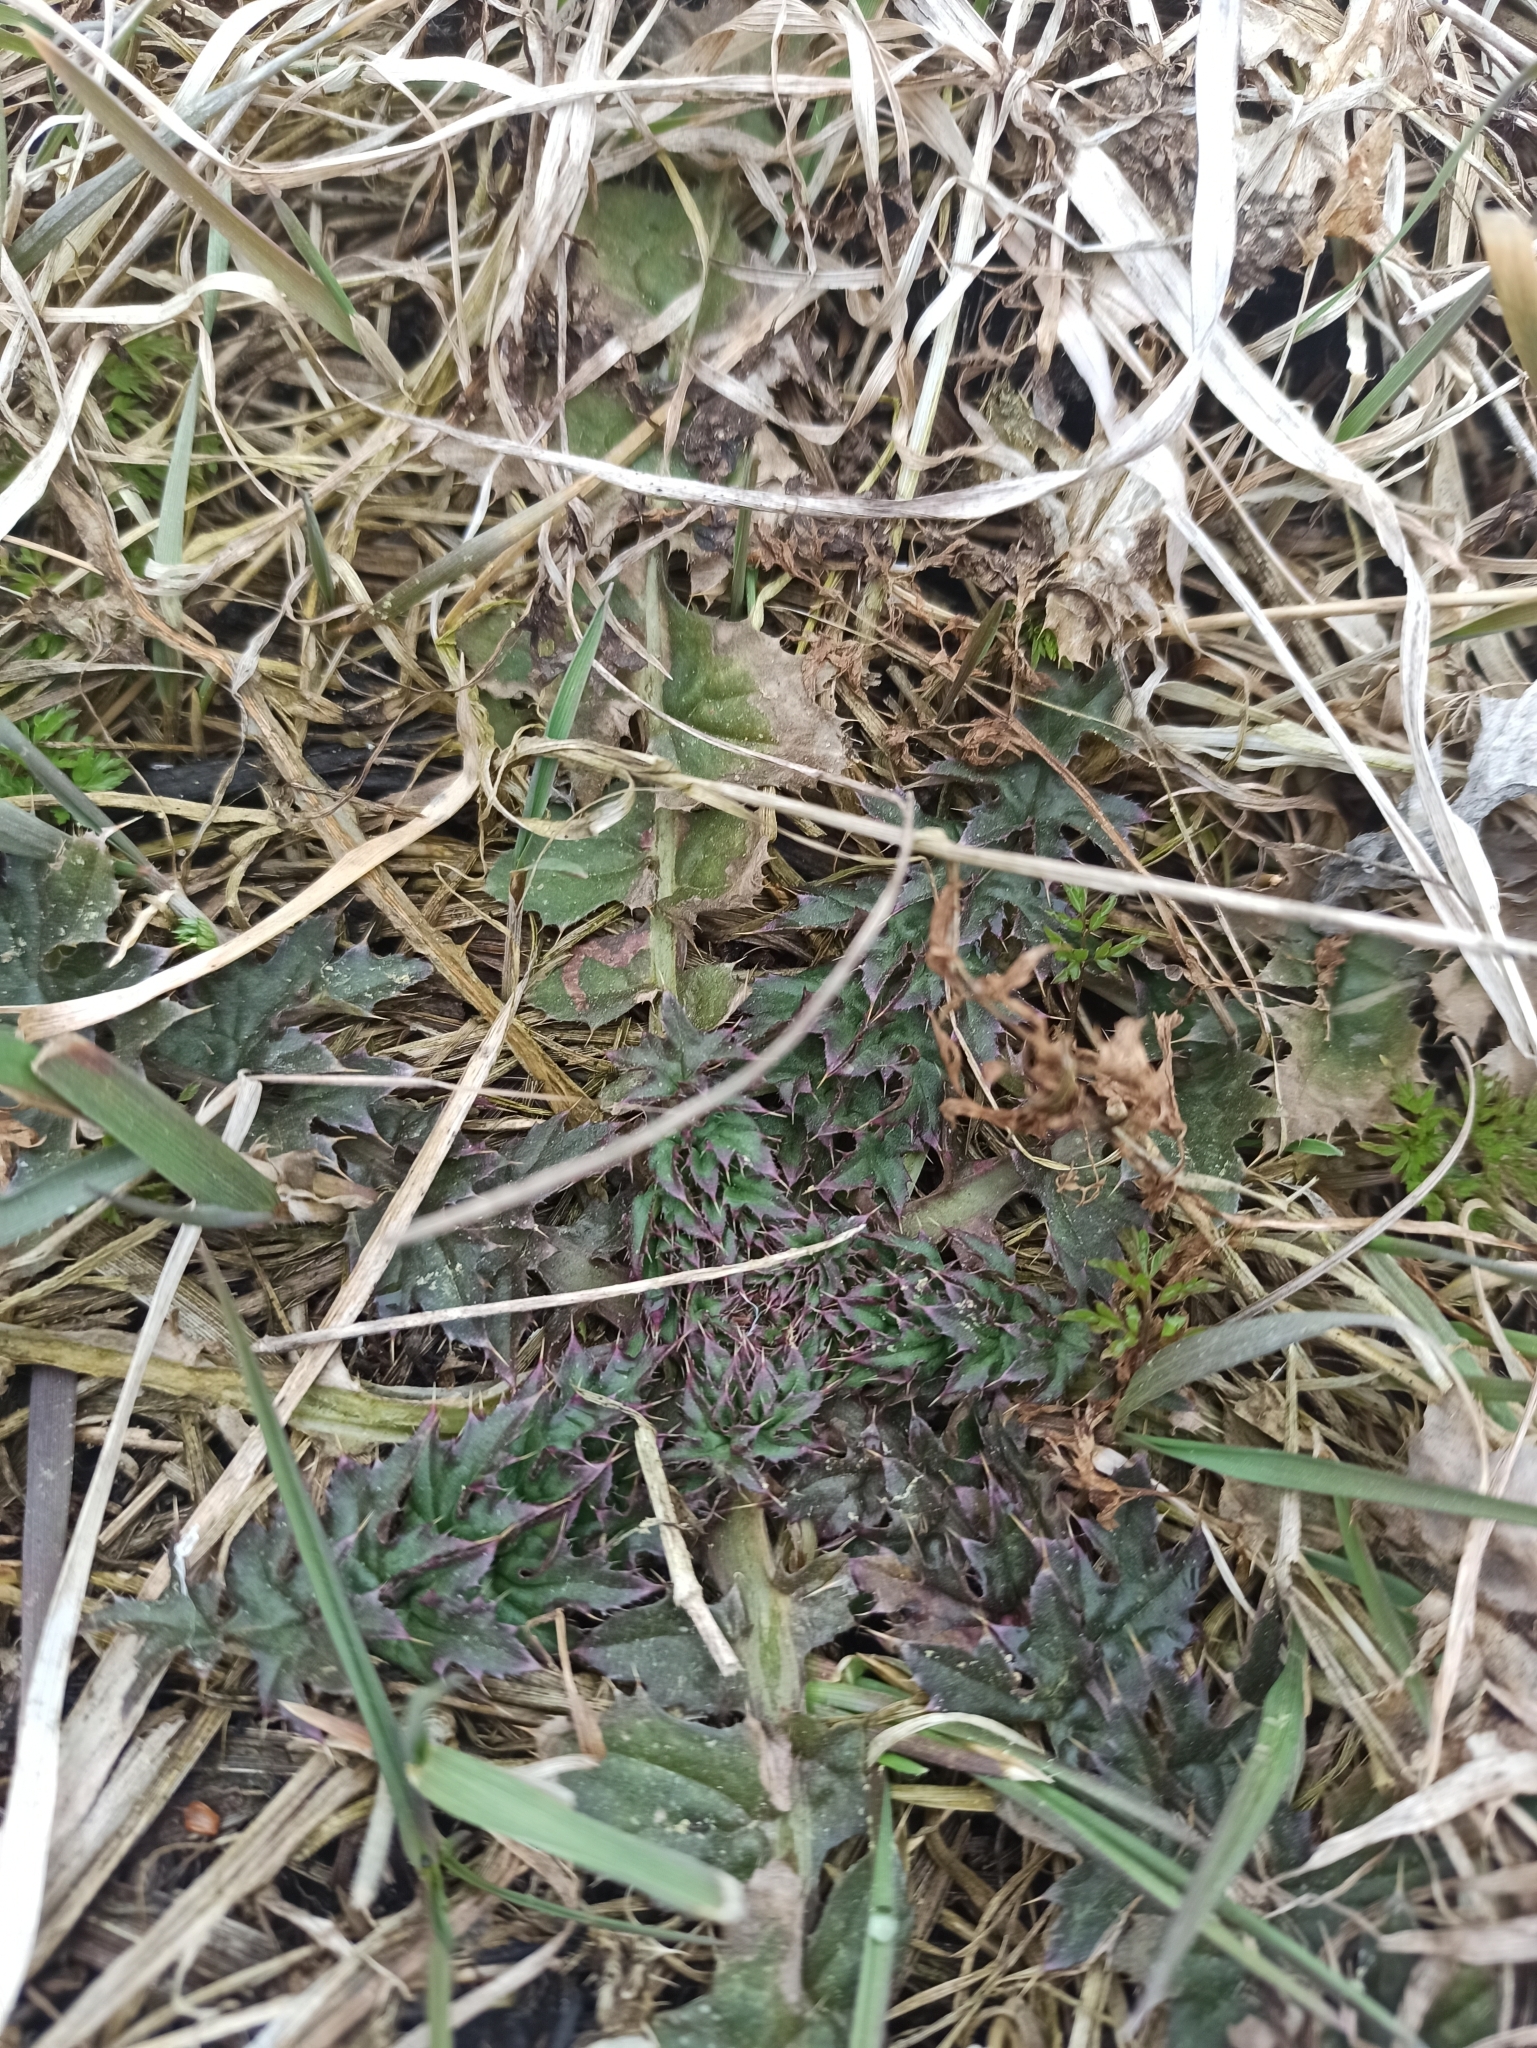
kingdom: Plantae
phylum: Tracheophyta
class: Magnoliopsida
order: Asterales
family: Asteraceae
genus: Carduus
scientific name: Carduus acanthoides
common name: Plumeless thistle
